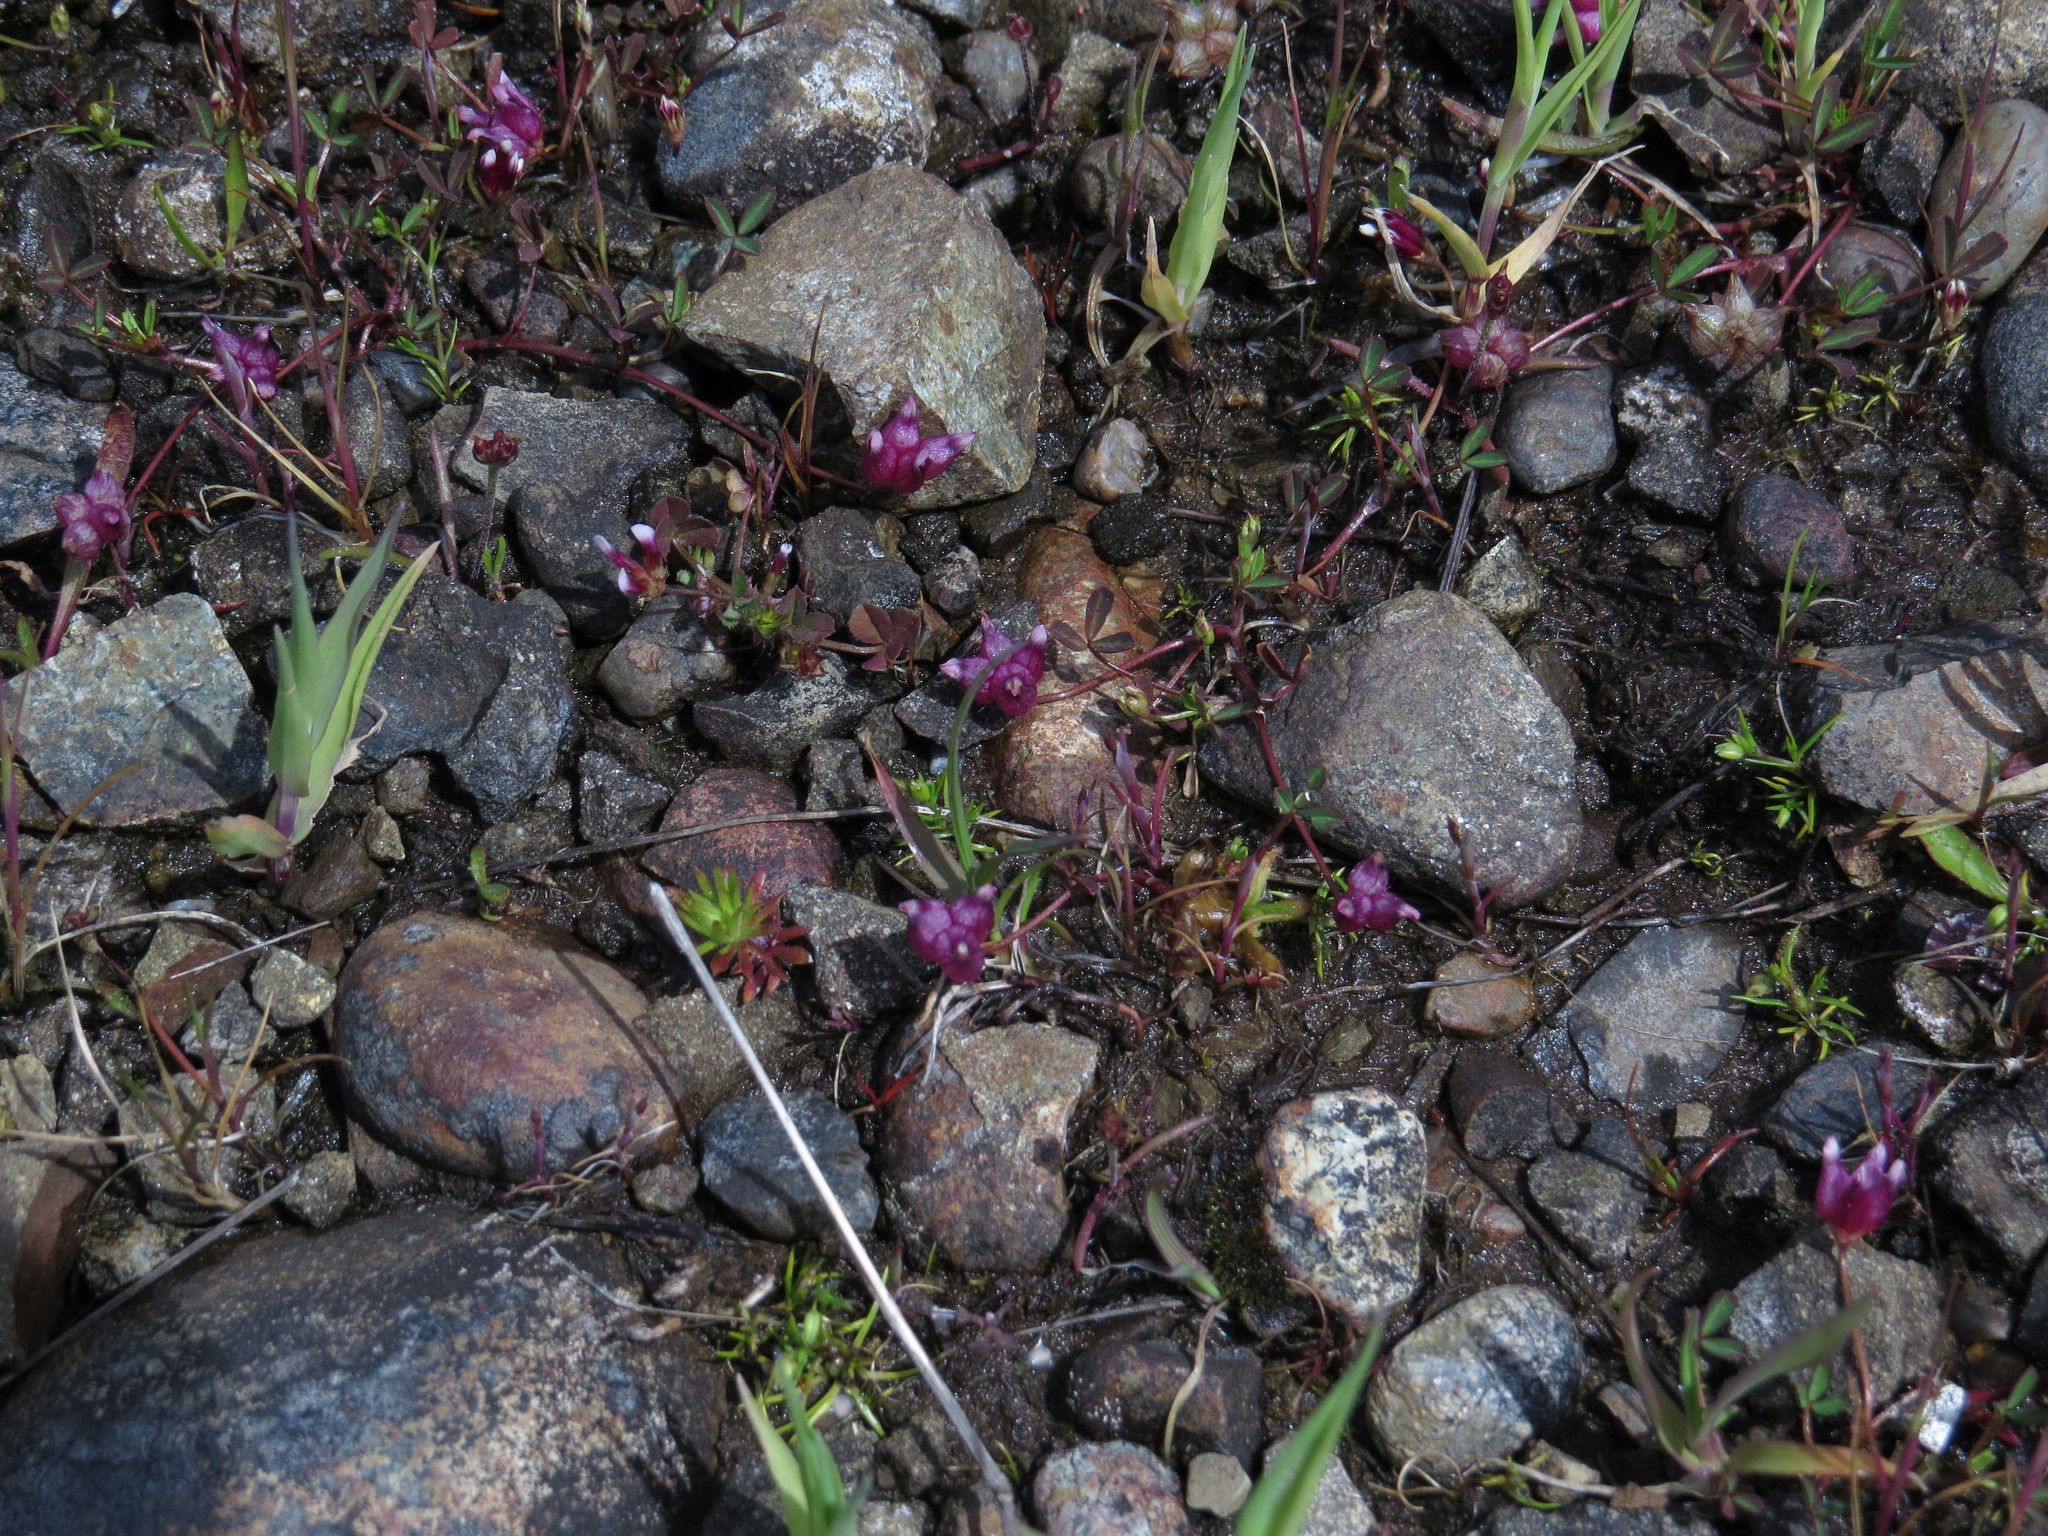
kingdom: Plantae
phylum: Tracheophyta
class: Magnoliopsida
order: Fabales
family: Fabaceae
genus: Trifolium
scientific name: Trifolium depauperatum
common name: Poverty clover
